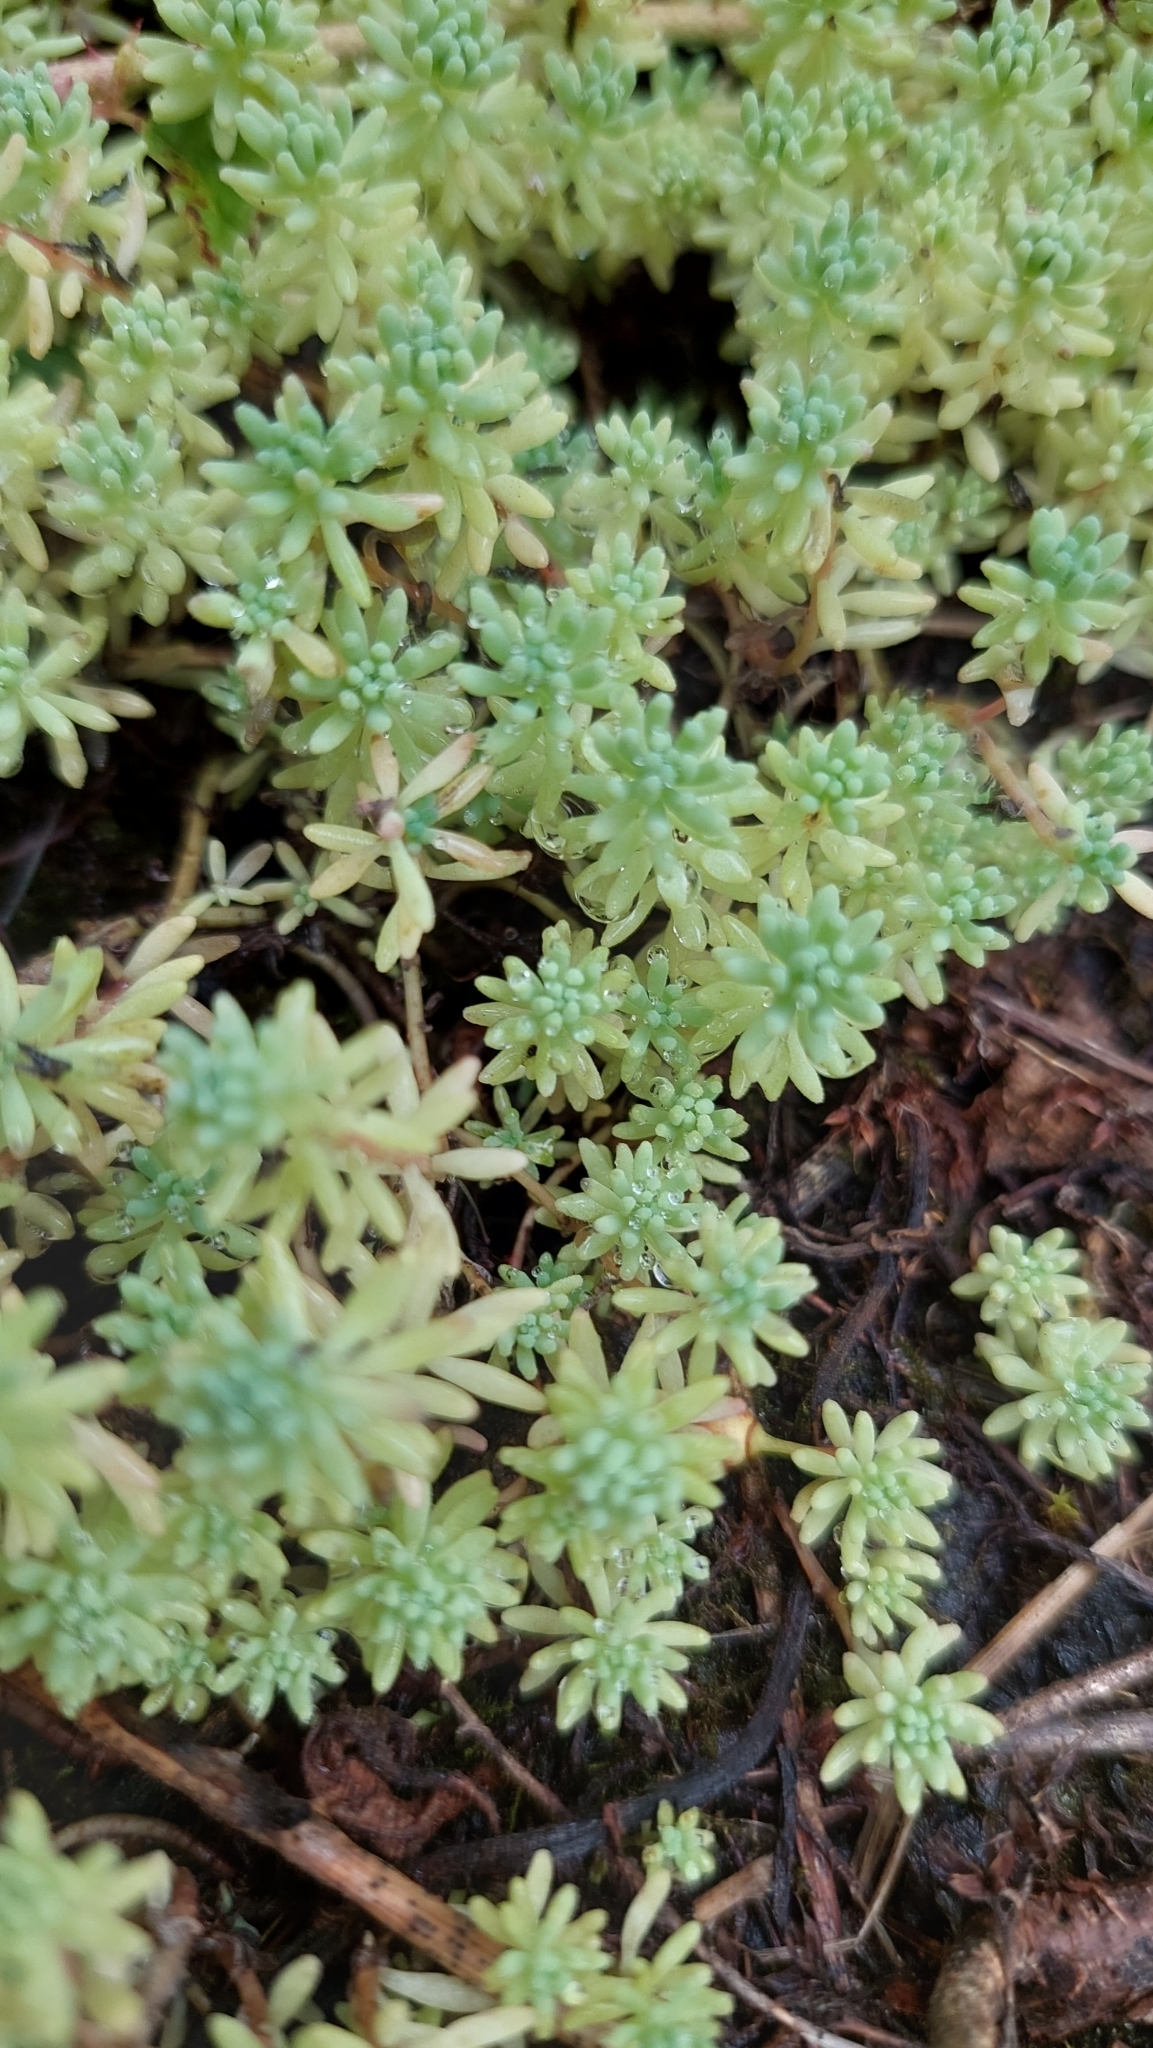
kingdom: Plantae
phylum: Tracheophyta
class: Magnoliopsida
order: Saxifragales
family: Crassulaceae
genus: Sedum
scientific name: Sedum pallidum
